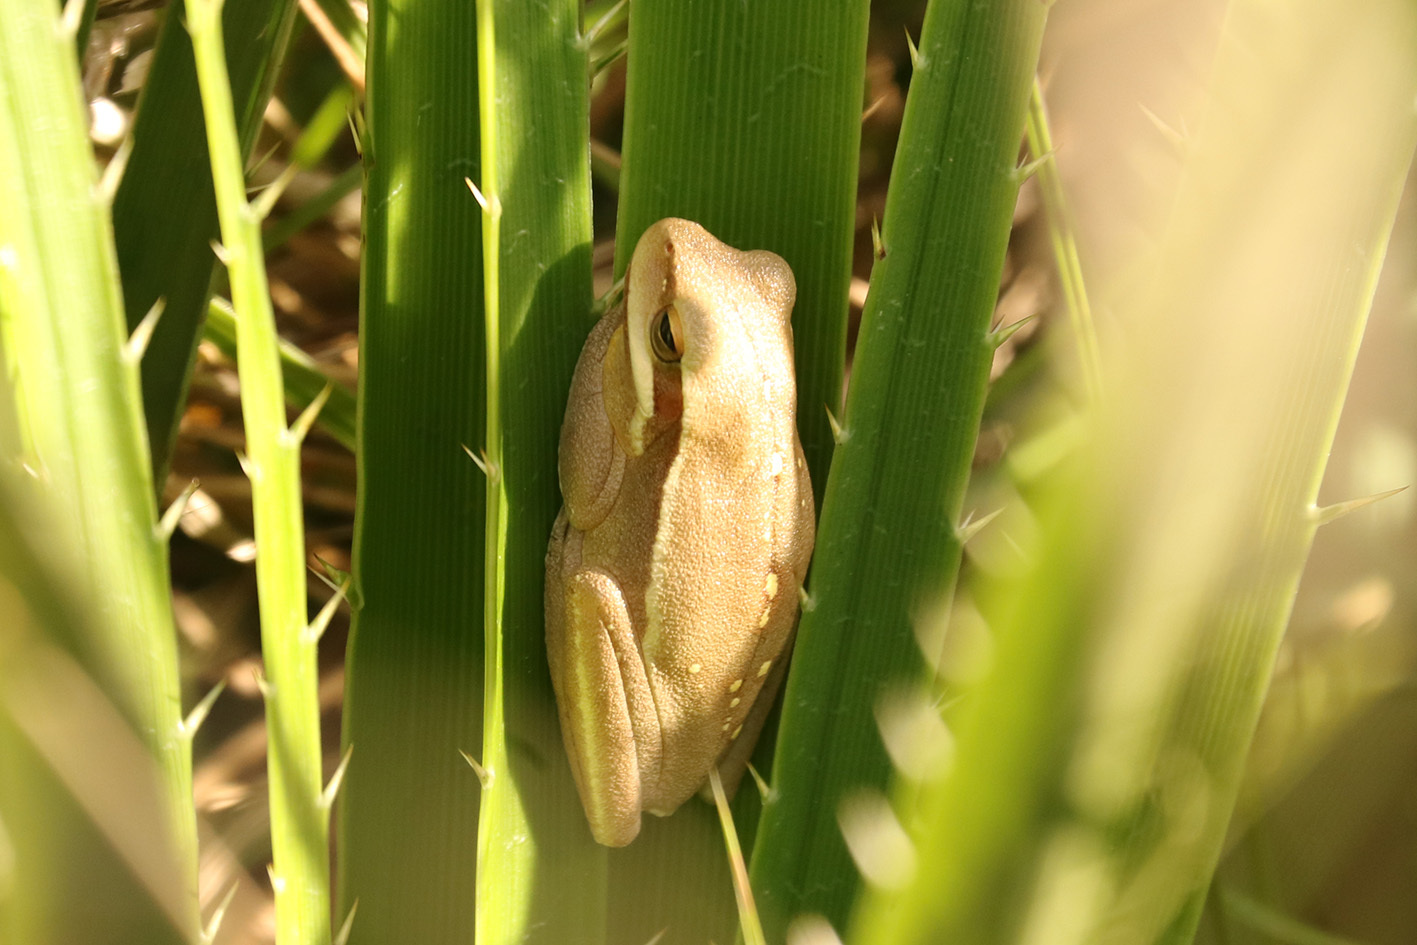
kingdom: Animalia
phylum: Chordata
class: Amphibia
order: Anura
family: Hylidae
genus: Boana
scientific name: Boana pulchella
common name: Montevideo treefrog
